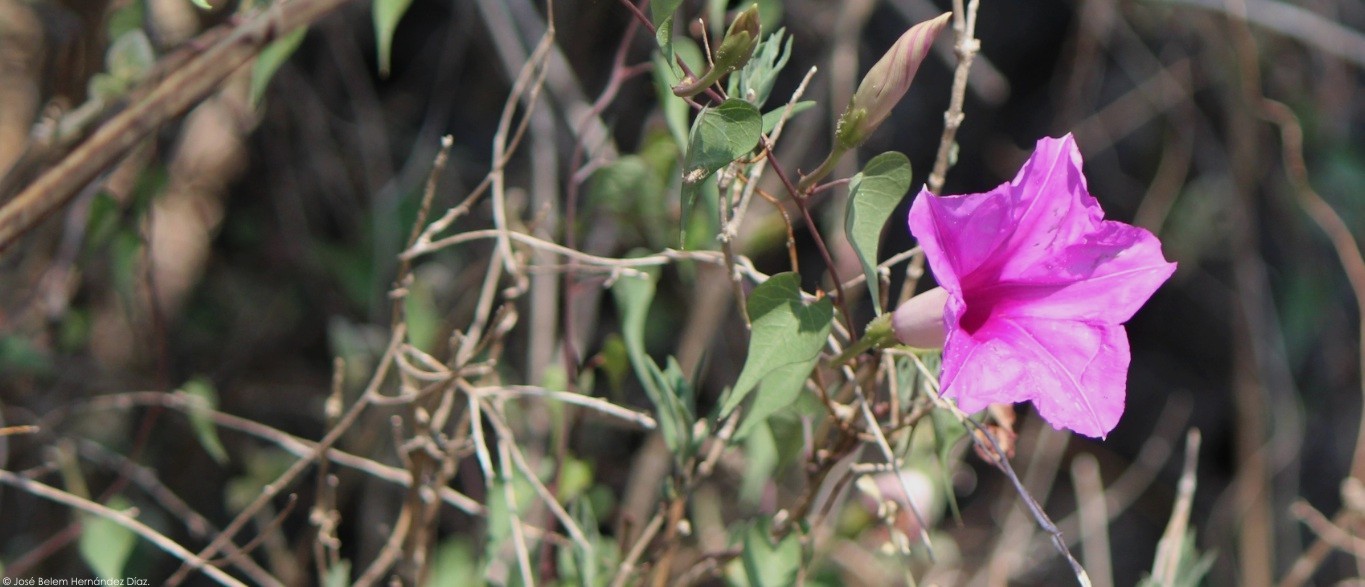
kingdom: Plantae
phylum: Tracheophyta
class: Magnoliopsida
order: Solanales
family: Convolvulaceae
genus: Ipomoea
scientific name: Ipomoea lozanii
